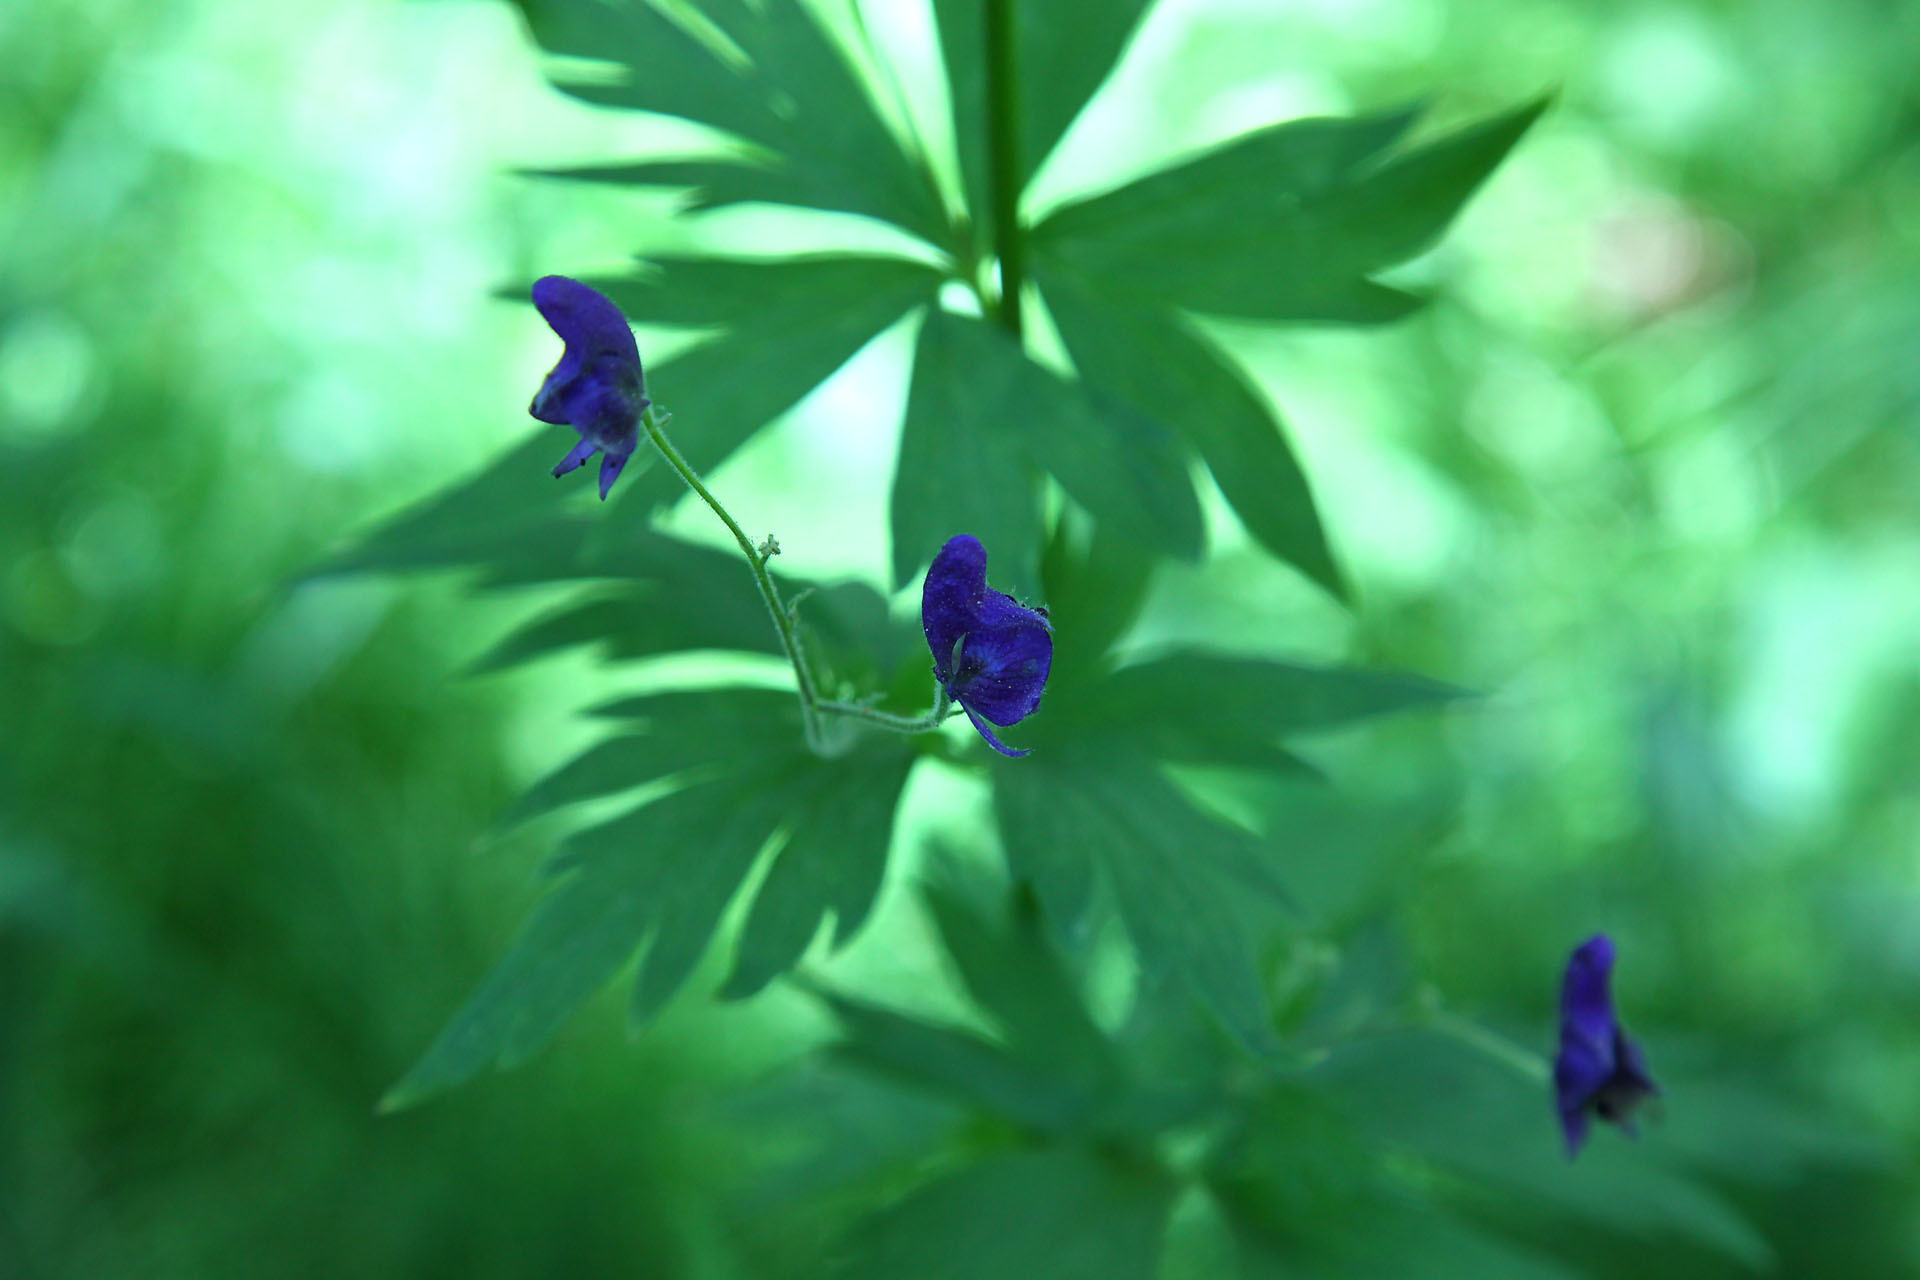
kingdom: Plantae
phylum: Tracheophyta
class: Magnoliopsida
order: Ranunculales
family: Ranunculaceae
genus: Aconitum
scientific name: Aconitum columbianum
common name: Columbia aconite
